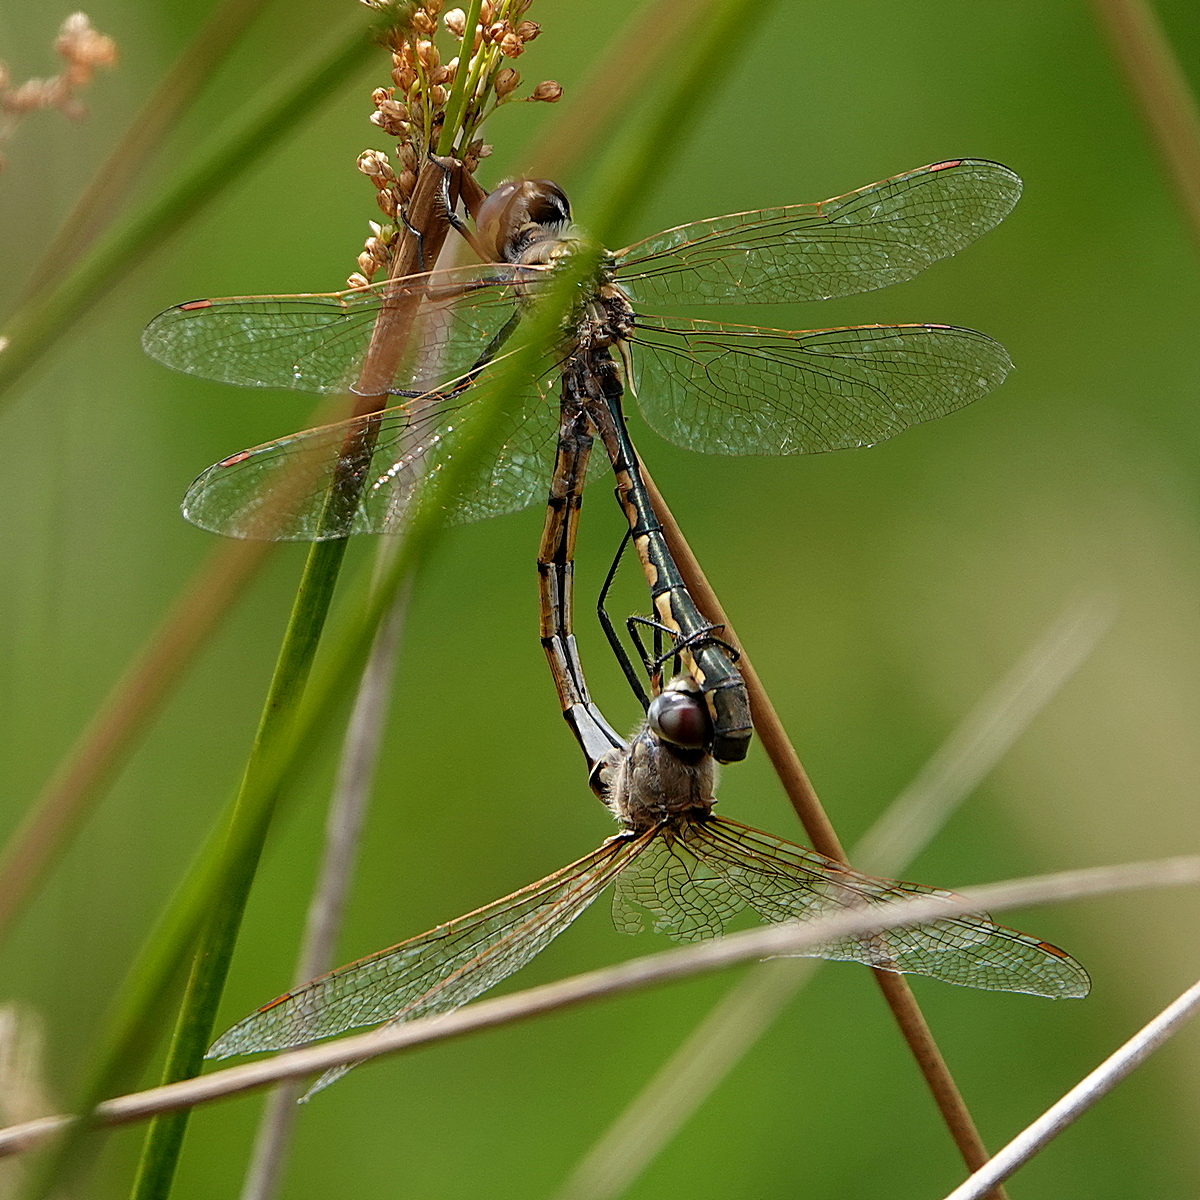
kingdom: Animalia
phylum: Arthropoda
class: Insecta
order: Odonata
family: Corduliidae
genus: Hemicordulia
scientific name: Hemicordulia tau
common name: Tau emerald
